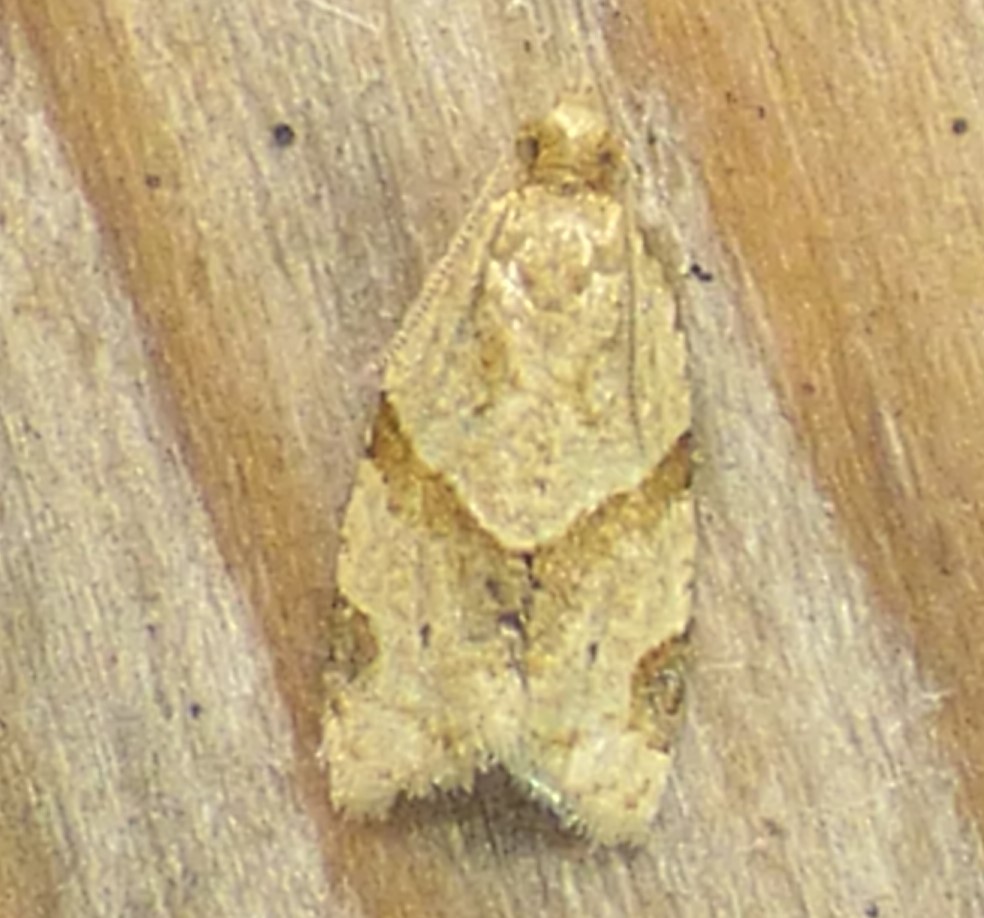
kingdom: Animalia
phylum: Arthropoda
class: Insecta
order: Lepidoptera
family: Tortricidae
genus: Clepsis
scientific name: Clepsis peritana
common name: Garden tortrix
